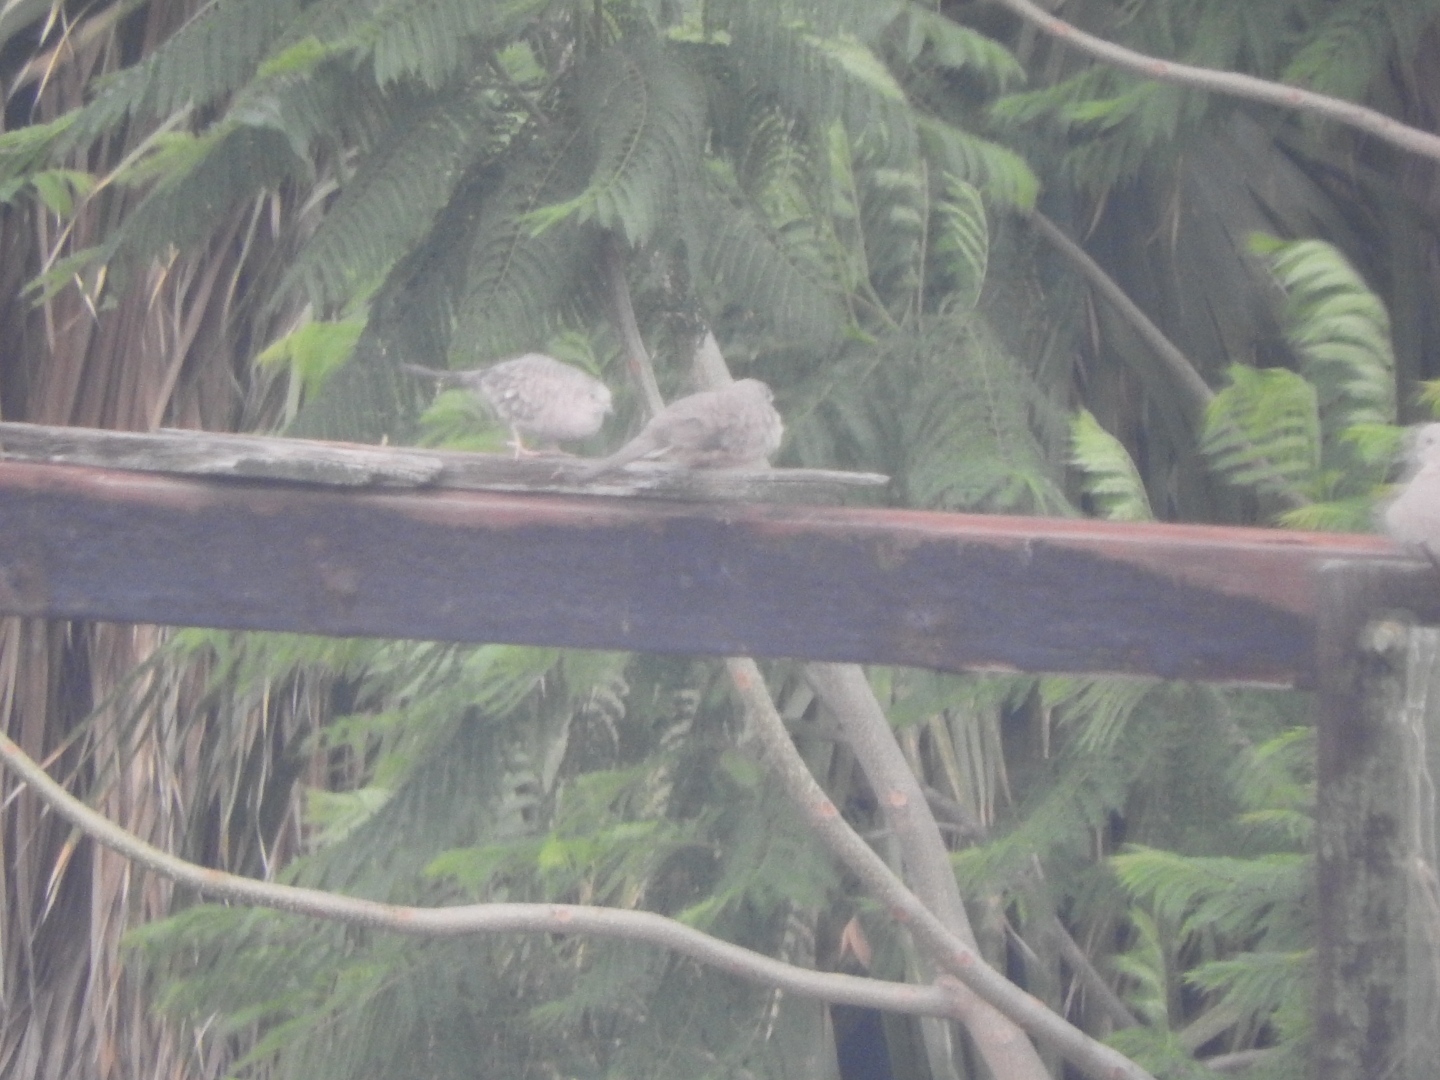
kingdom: Animalia
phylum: Chordata
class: Aves
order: Columbiformes
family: Columbidae
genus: Columbina
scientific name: Columbina inca
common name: Inca dove
